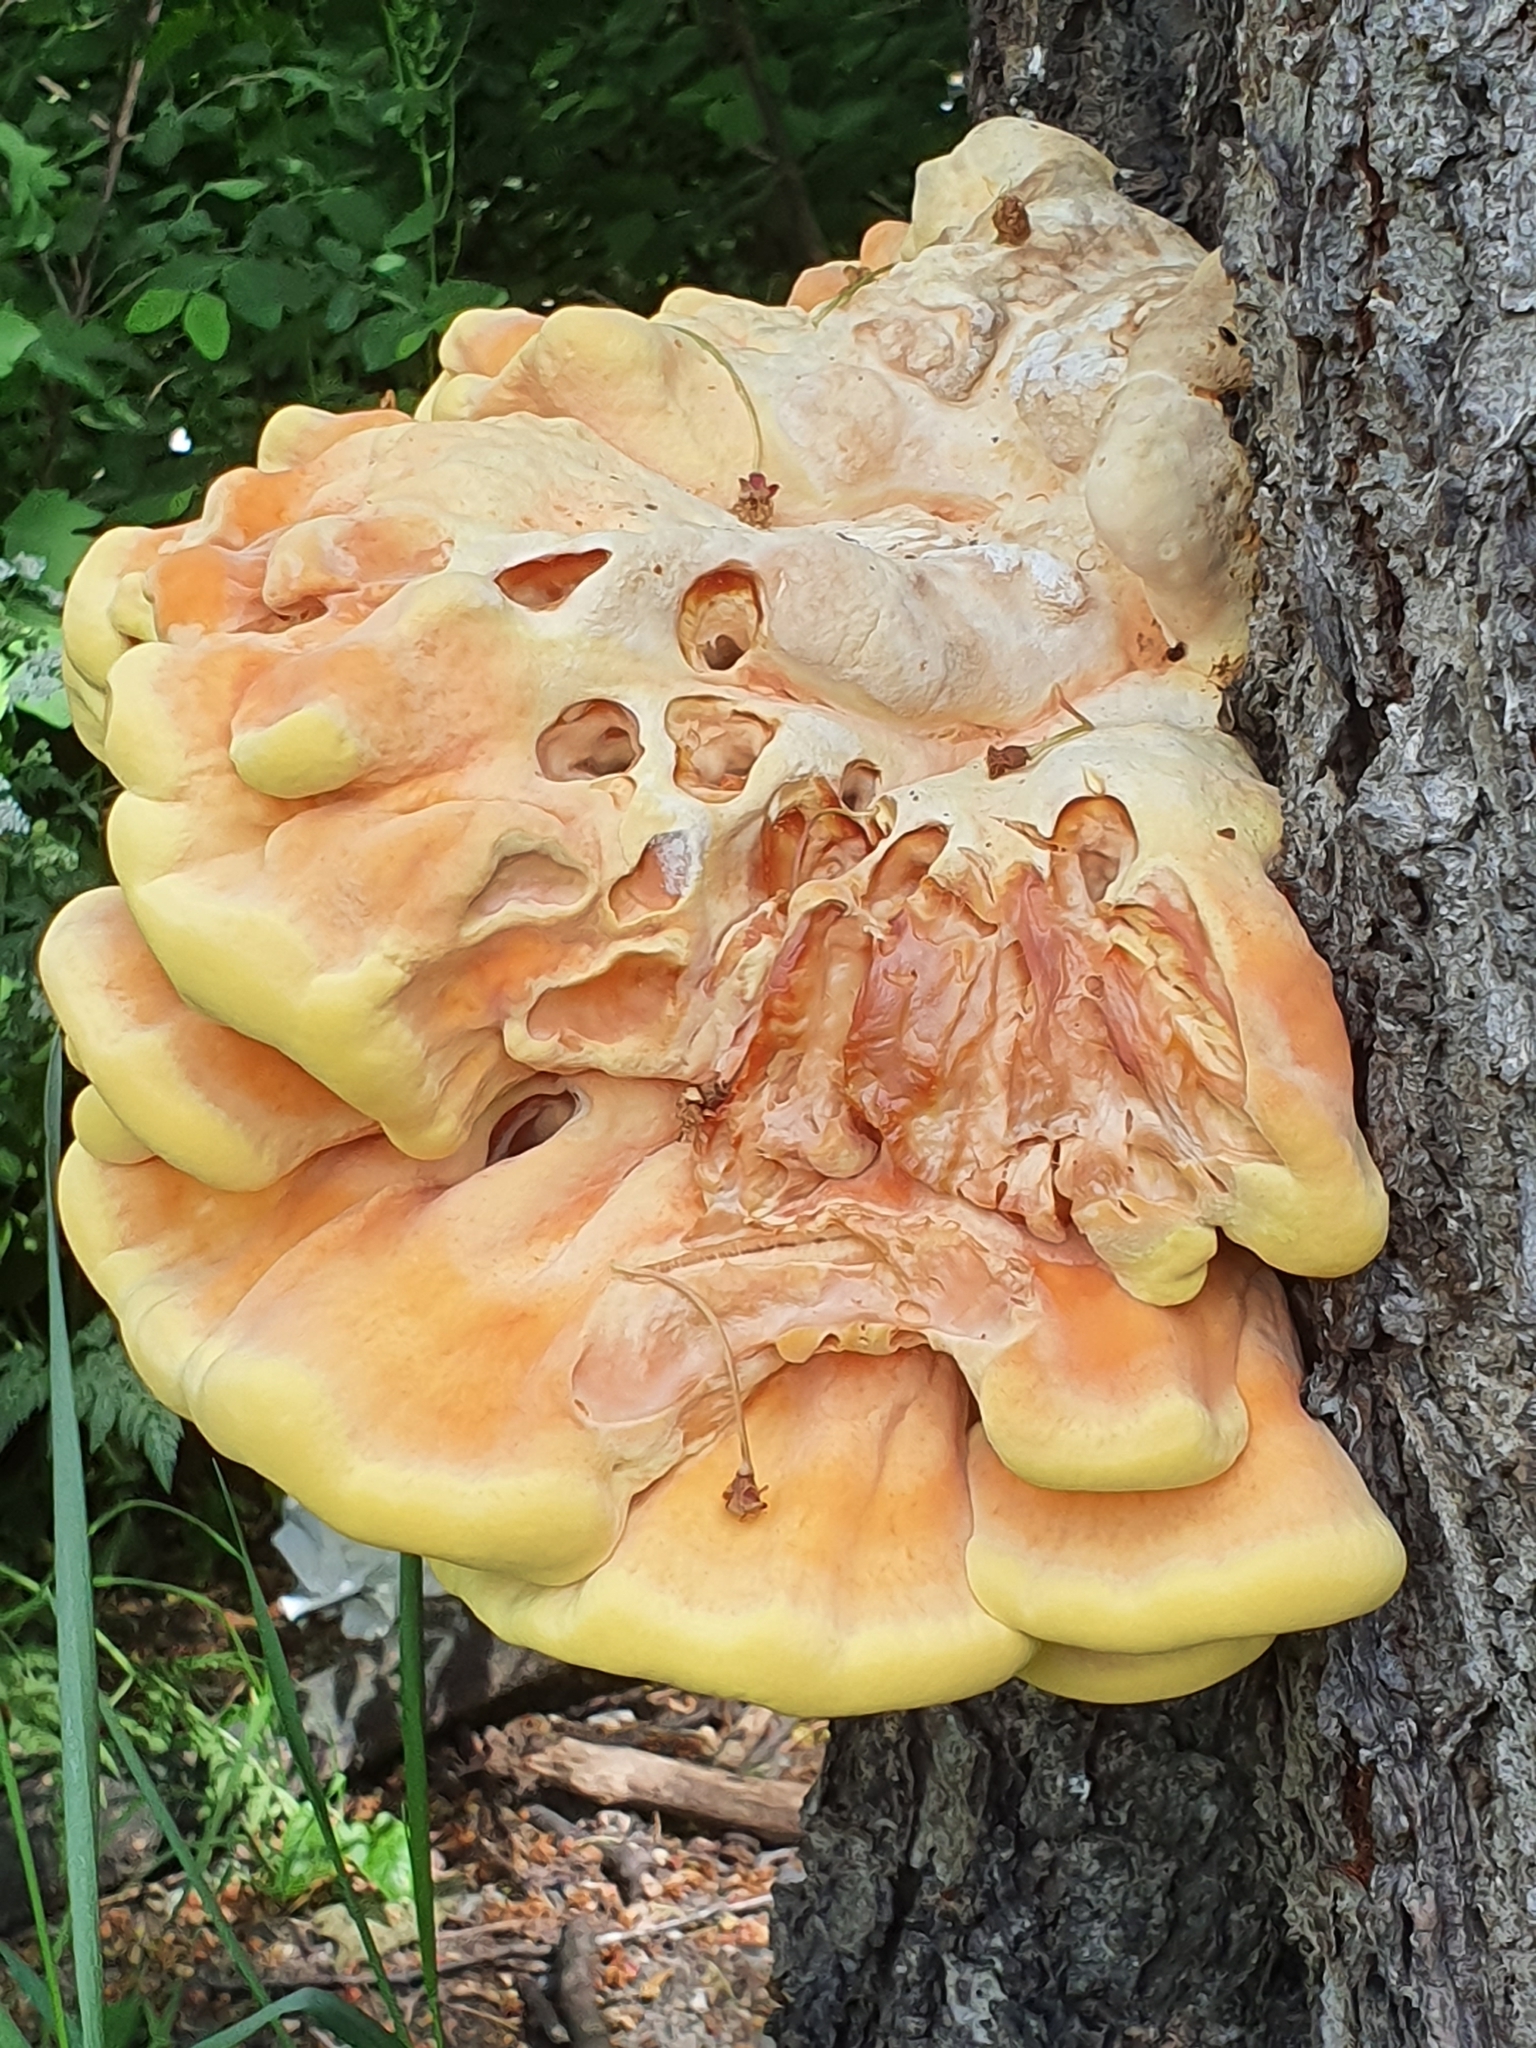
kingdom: Fungi
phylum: Basidiomycota
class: Agaricomycetes
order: Polyporales
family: Laetiporaceae
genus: Laetiporus
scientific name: Laetiporus sulphureus
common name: Chicken of the woods
